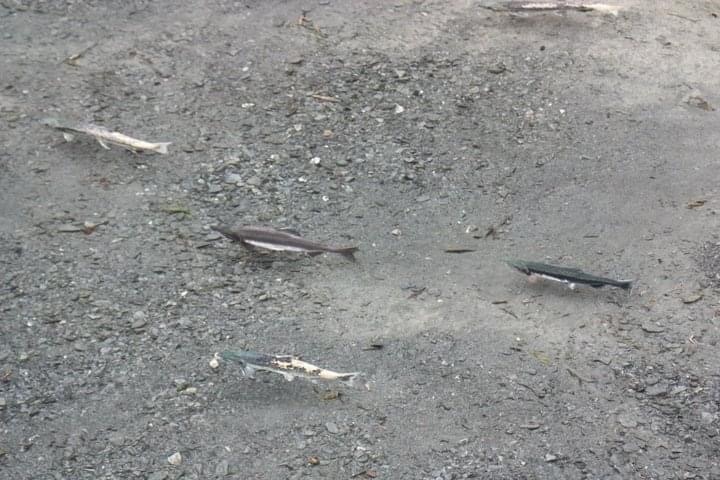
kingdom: Animalia
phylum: Chordata
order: Salmoniformes
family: Salmonidae
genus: Oncorhynchus
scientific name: Oncorhynchus gorbuscha
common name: Humpback salmon
